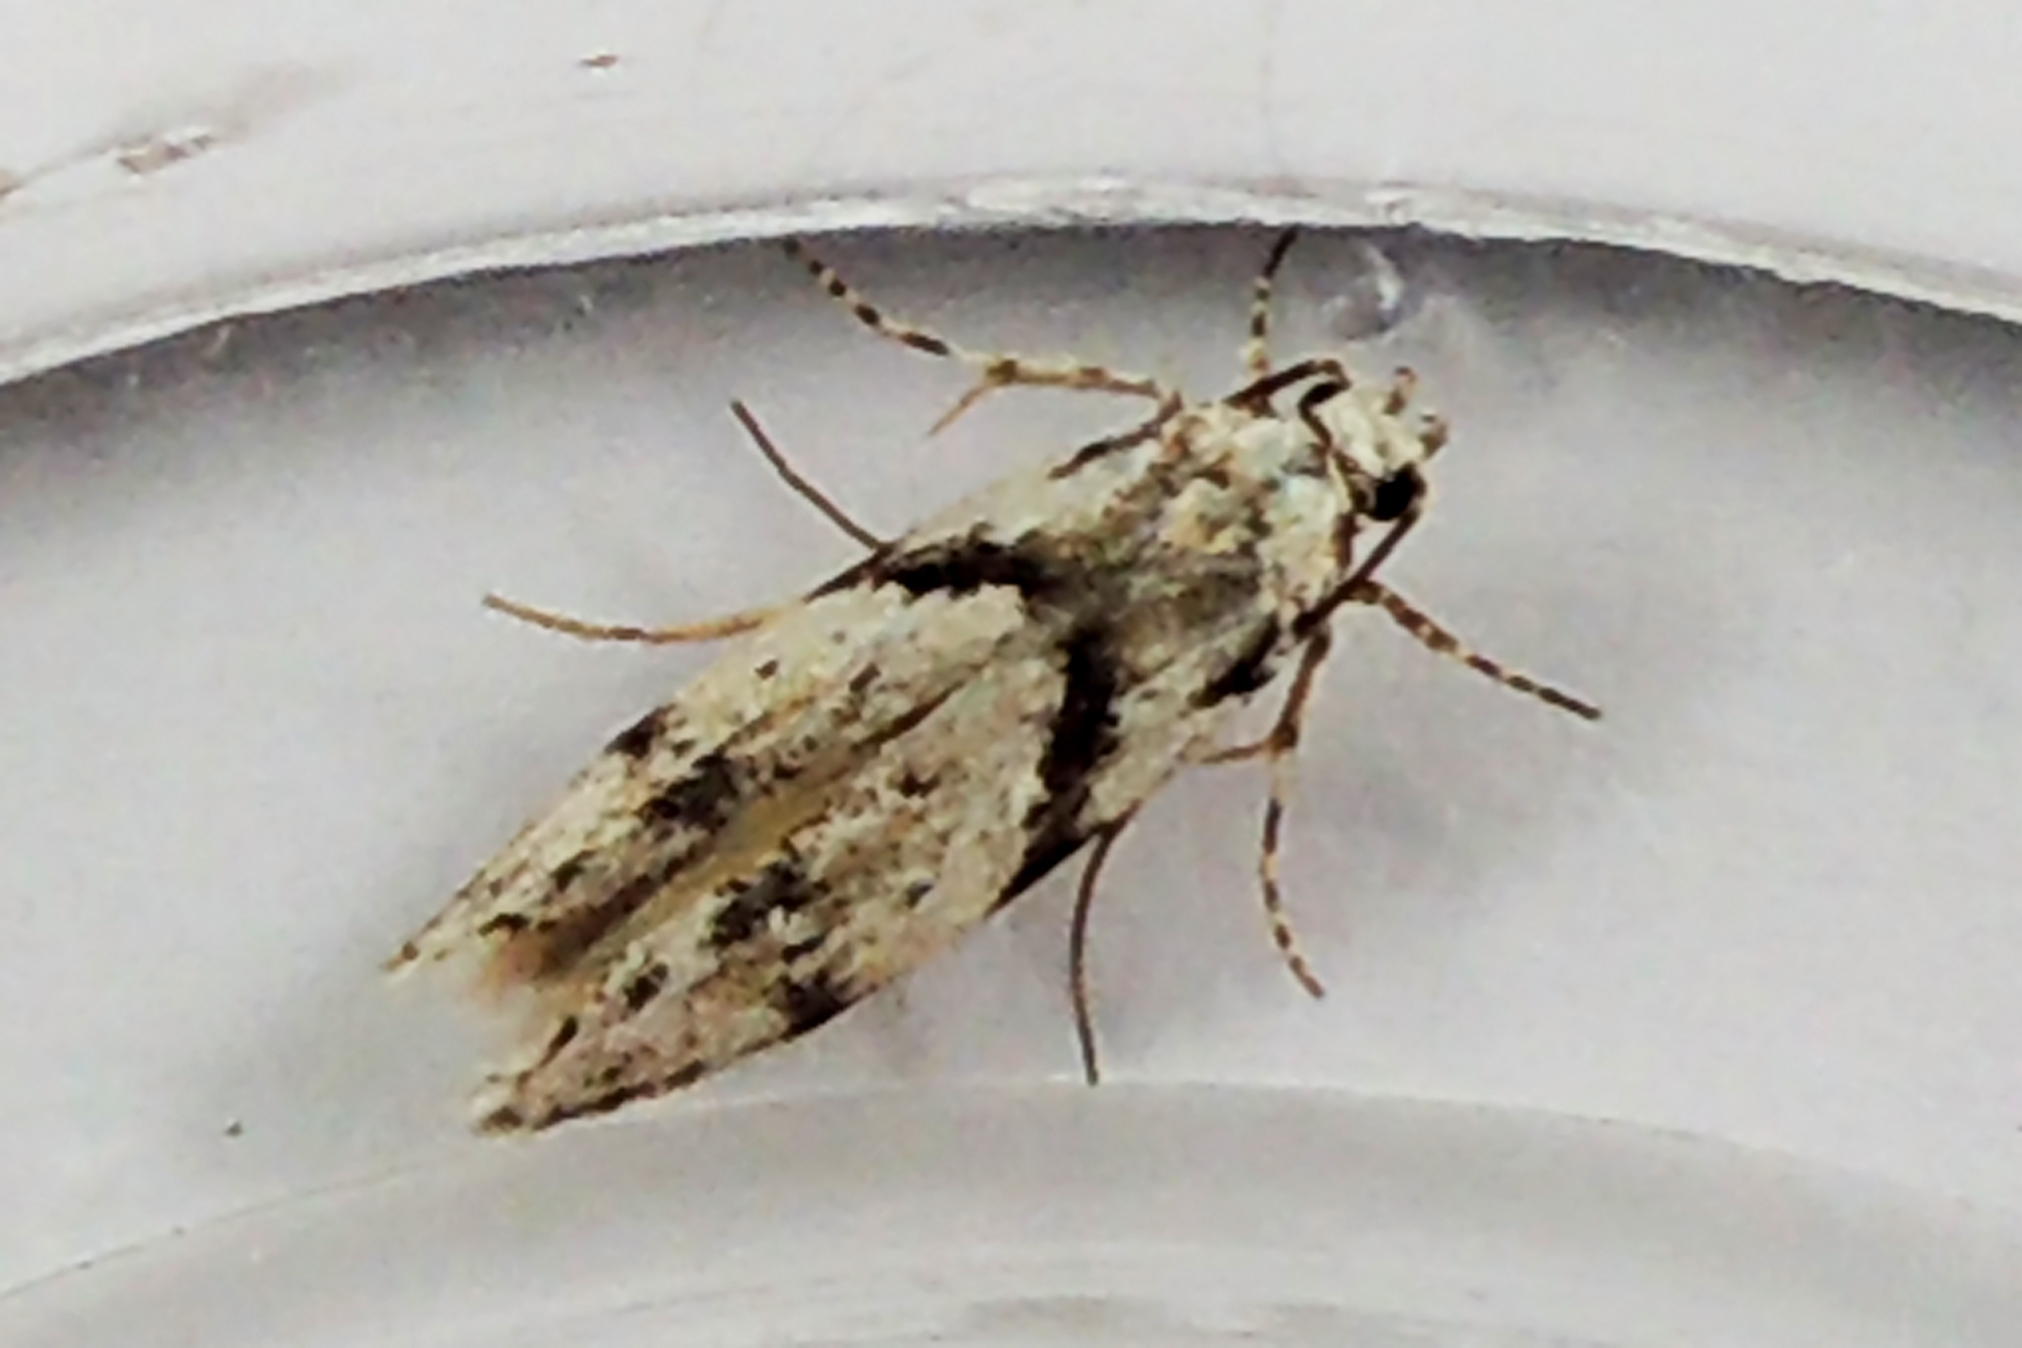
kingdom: Animalia
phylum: Arthropoda
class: Insecta
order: Lepidoptera
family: Gelechiidae
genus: Arogalea
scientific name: Arogalea cristifasciella
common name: White stripe-backed moth
